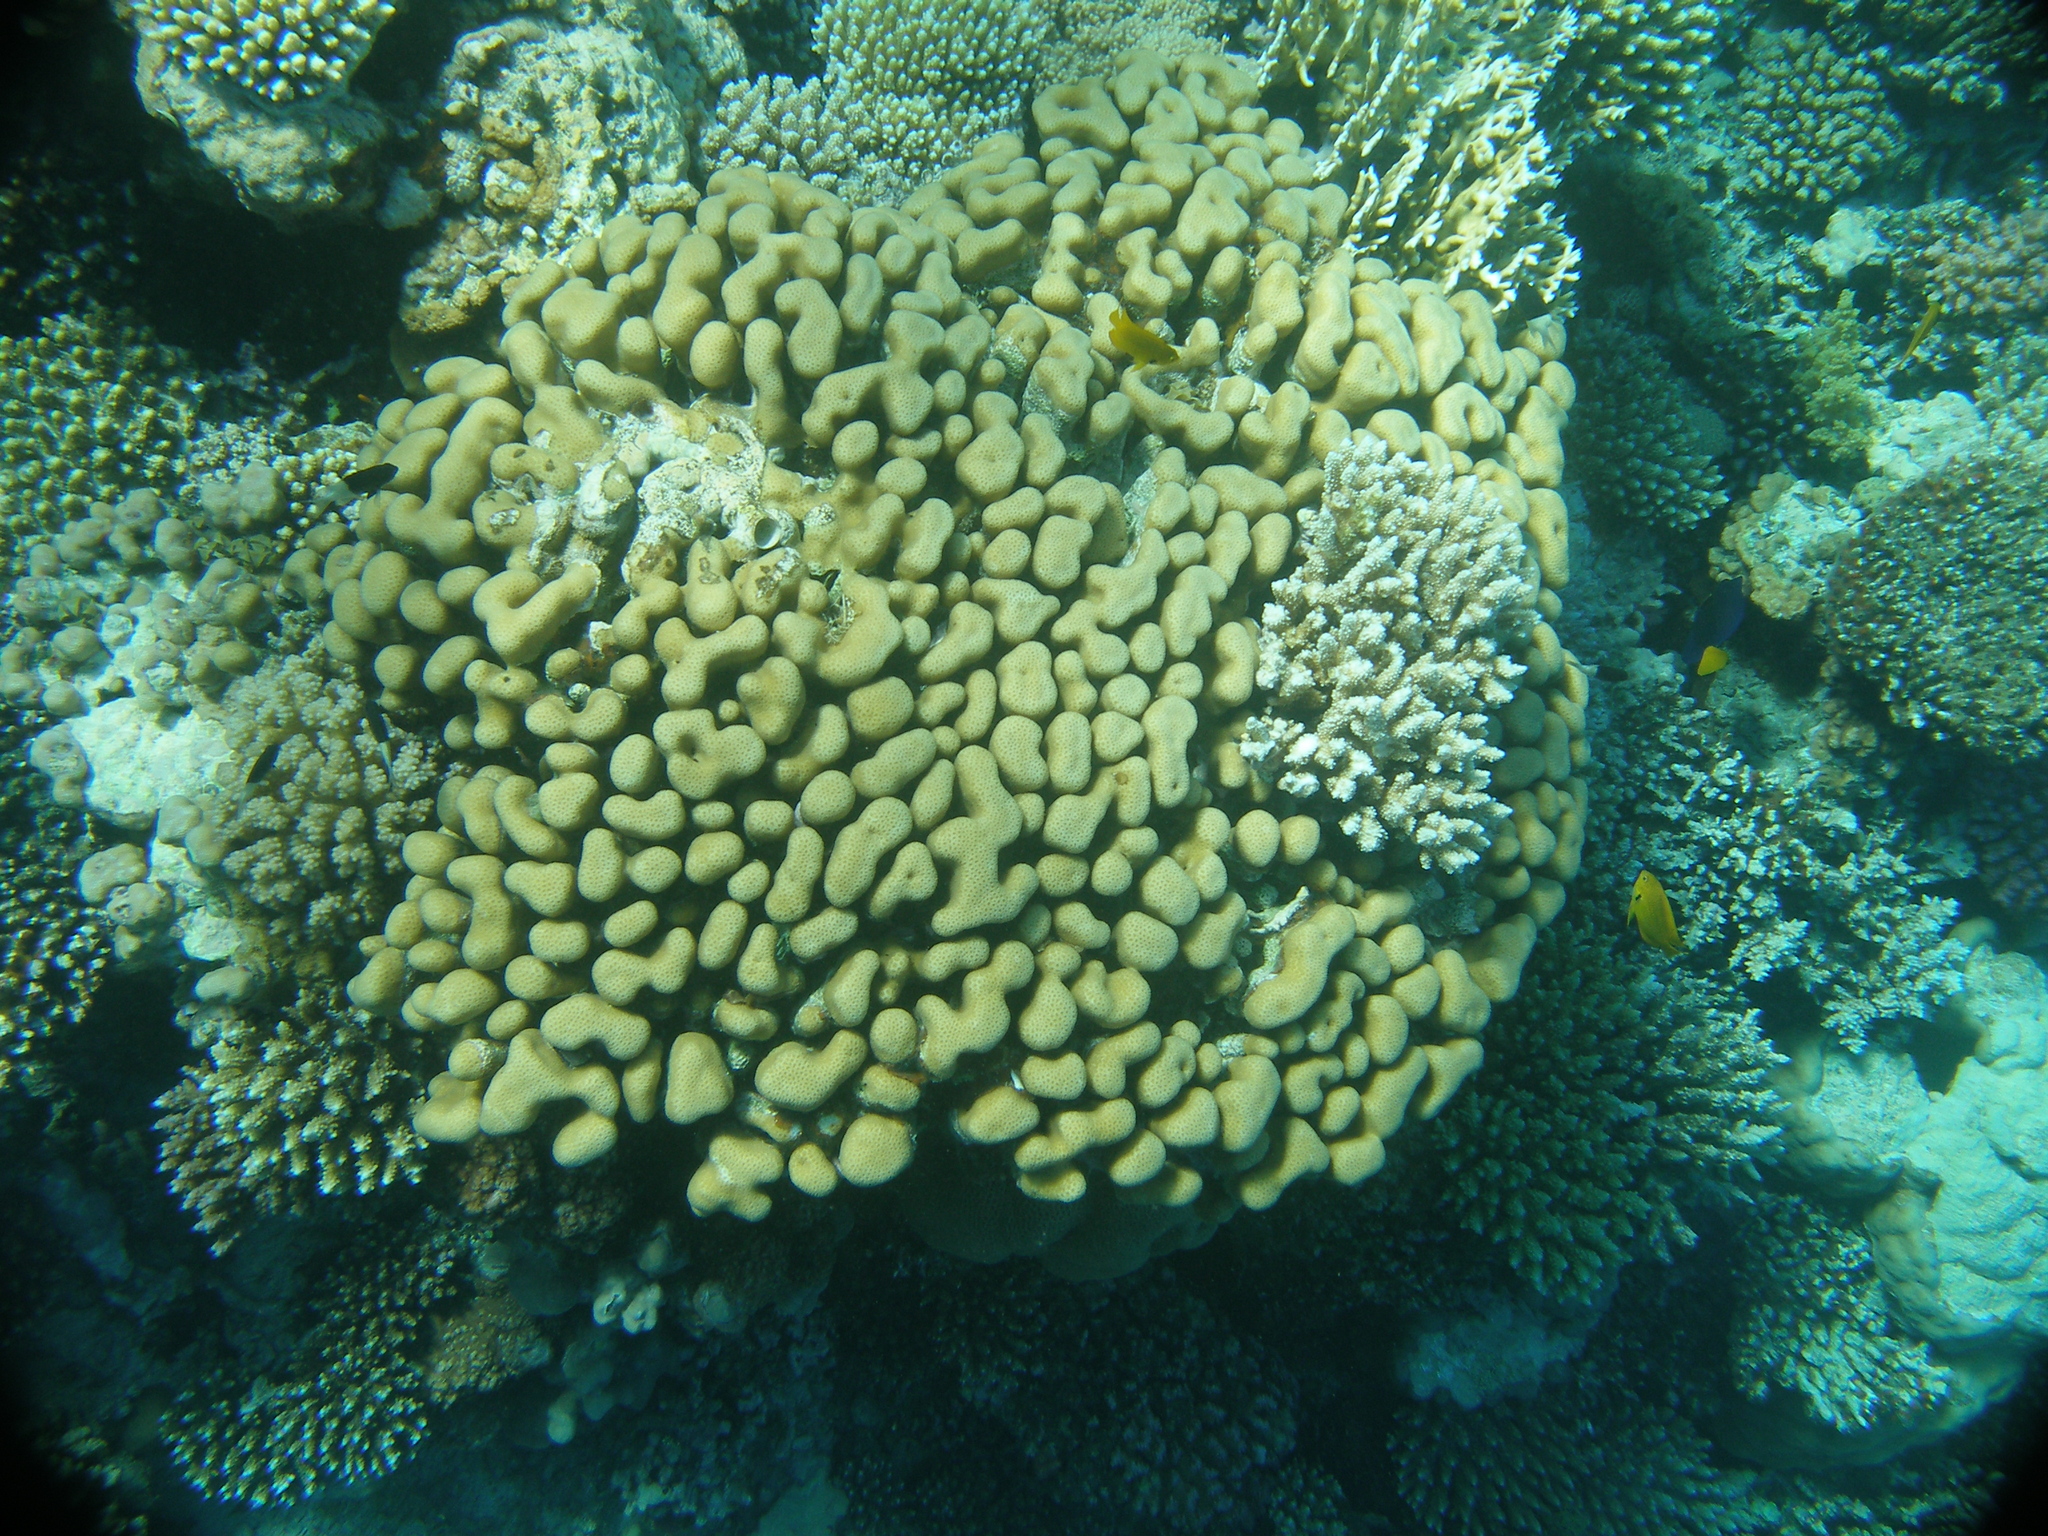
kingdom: Animalia
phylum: Cnidaria
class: Anthozoa
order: Scleractinia
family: Merulinidae
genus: Goniastrea
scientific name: Goniastrea stelligera
